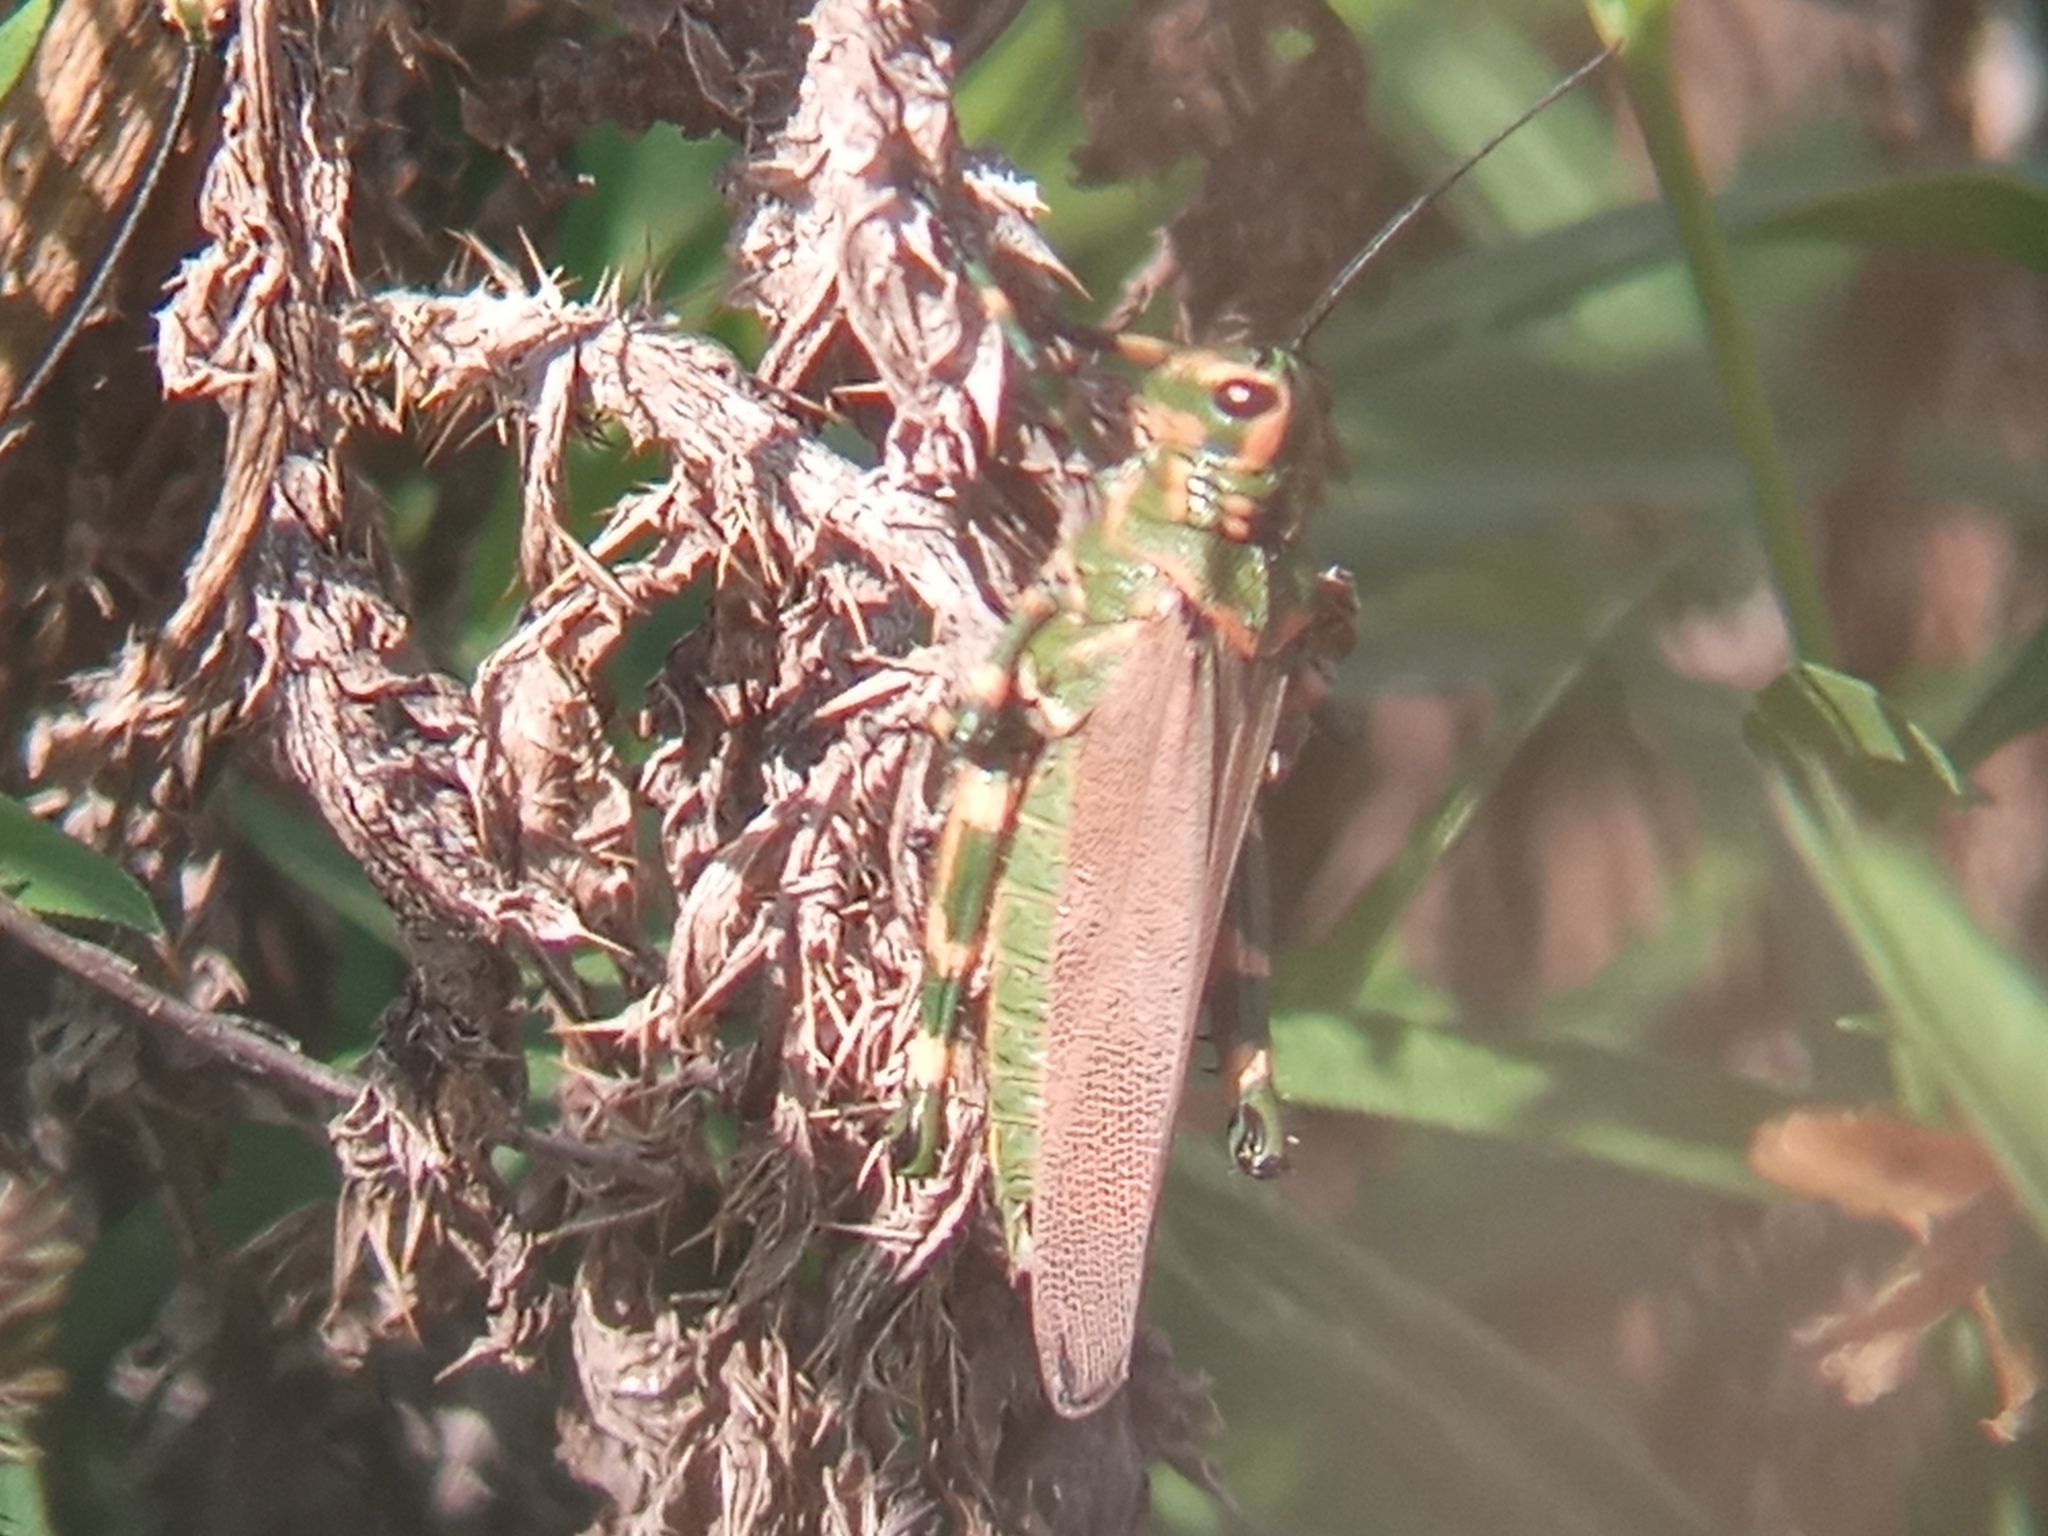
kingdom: Animalia
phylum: Arthropoda
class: Insecta
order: Orthoptera
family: Romaleidae
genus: Chromacris
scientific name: Chromacris speciosa
